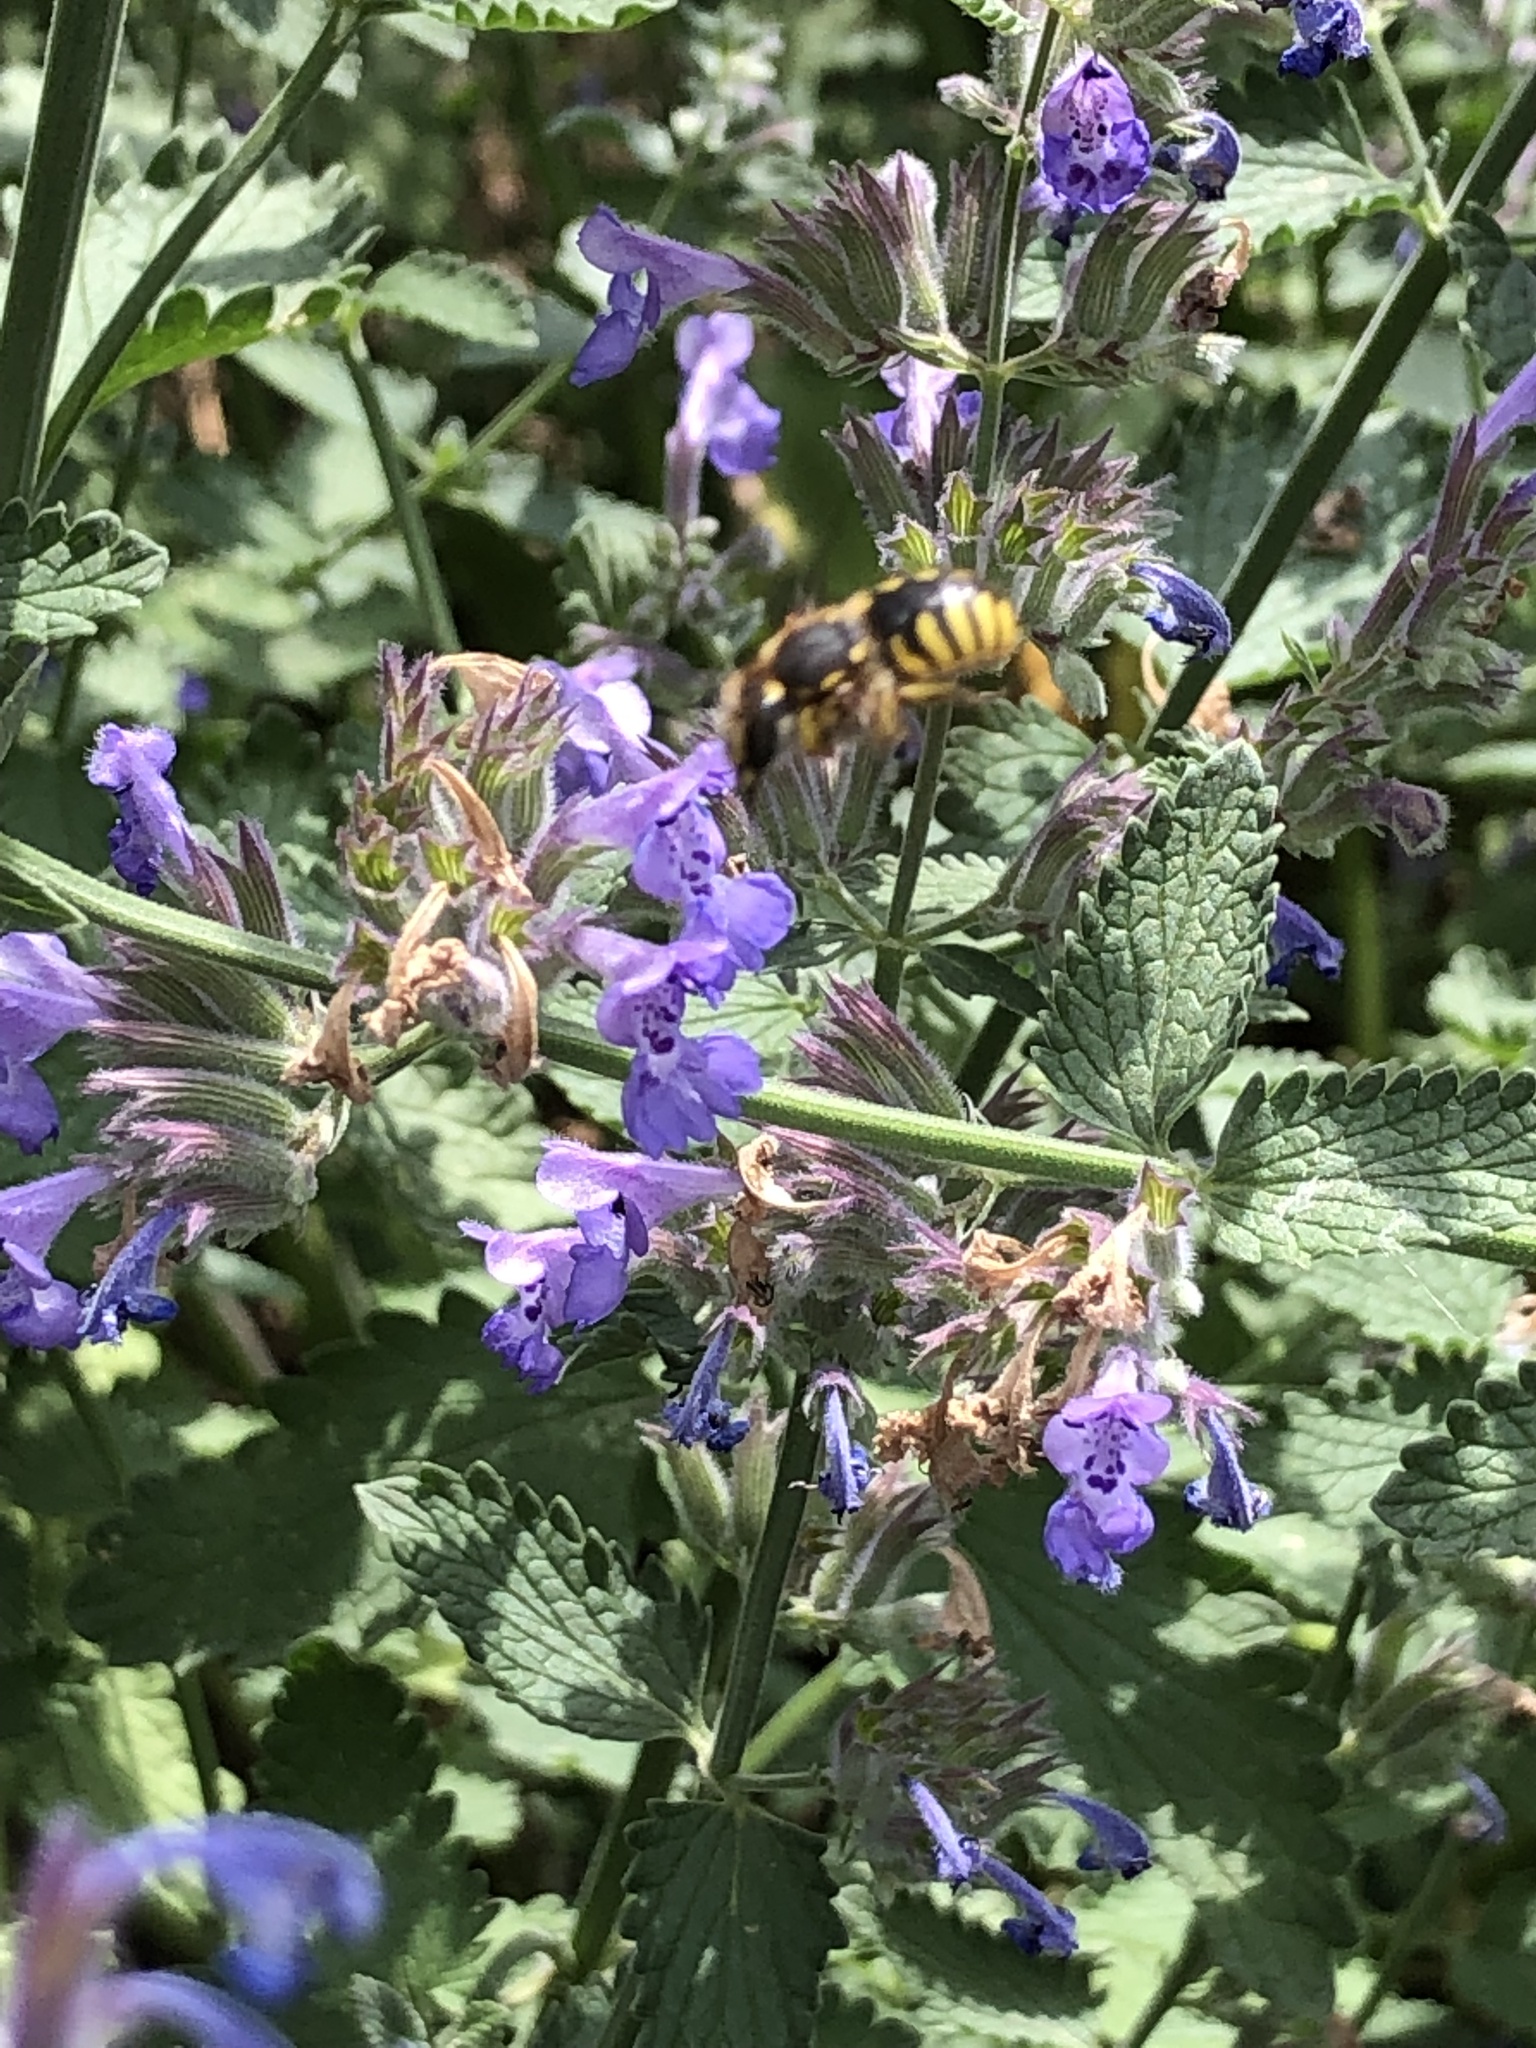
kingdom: Animalia
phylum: Arthropoda
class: Insecta
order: Hymenoptera
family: Megachilidae
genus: Anthidium
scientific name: Anthidium manicatum
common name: Wool carder bee
